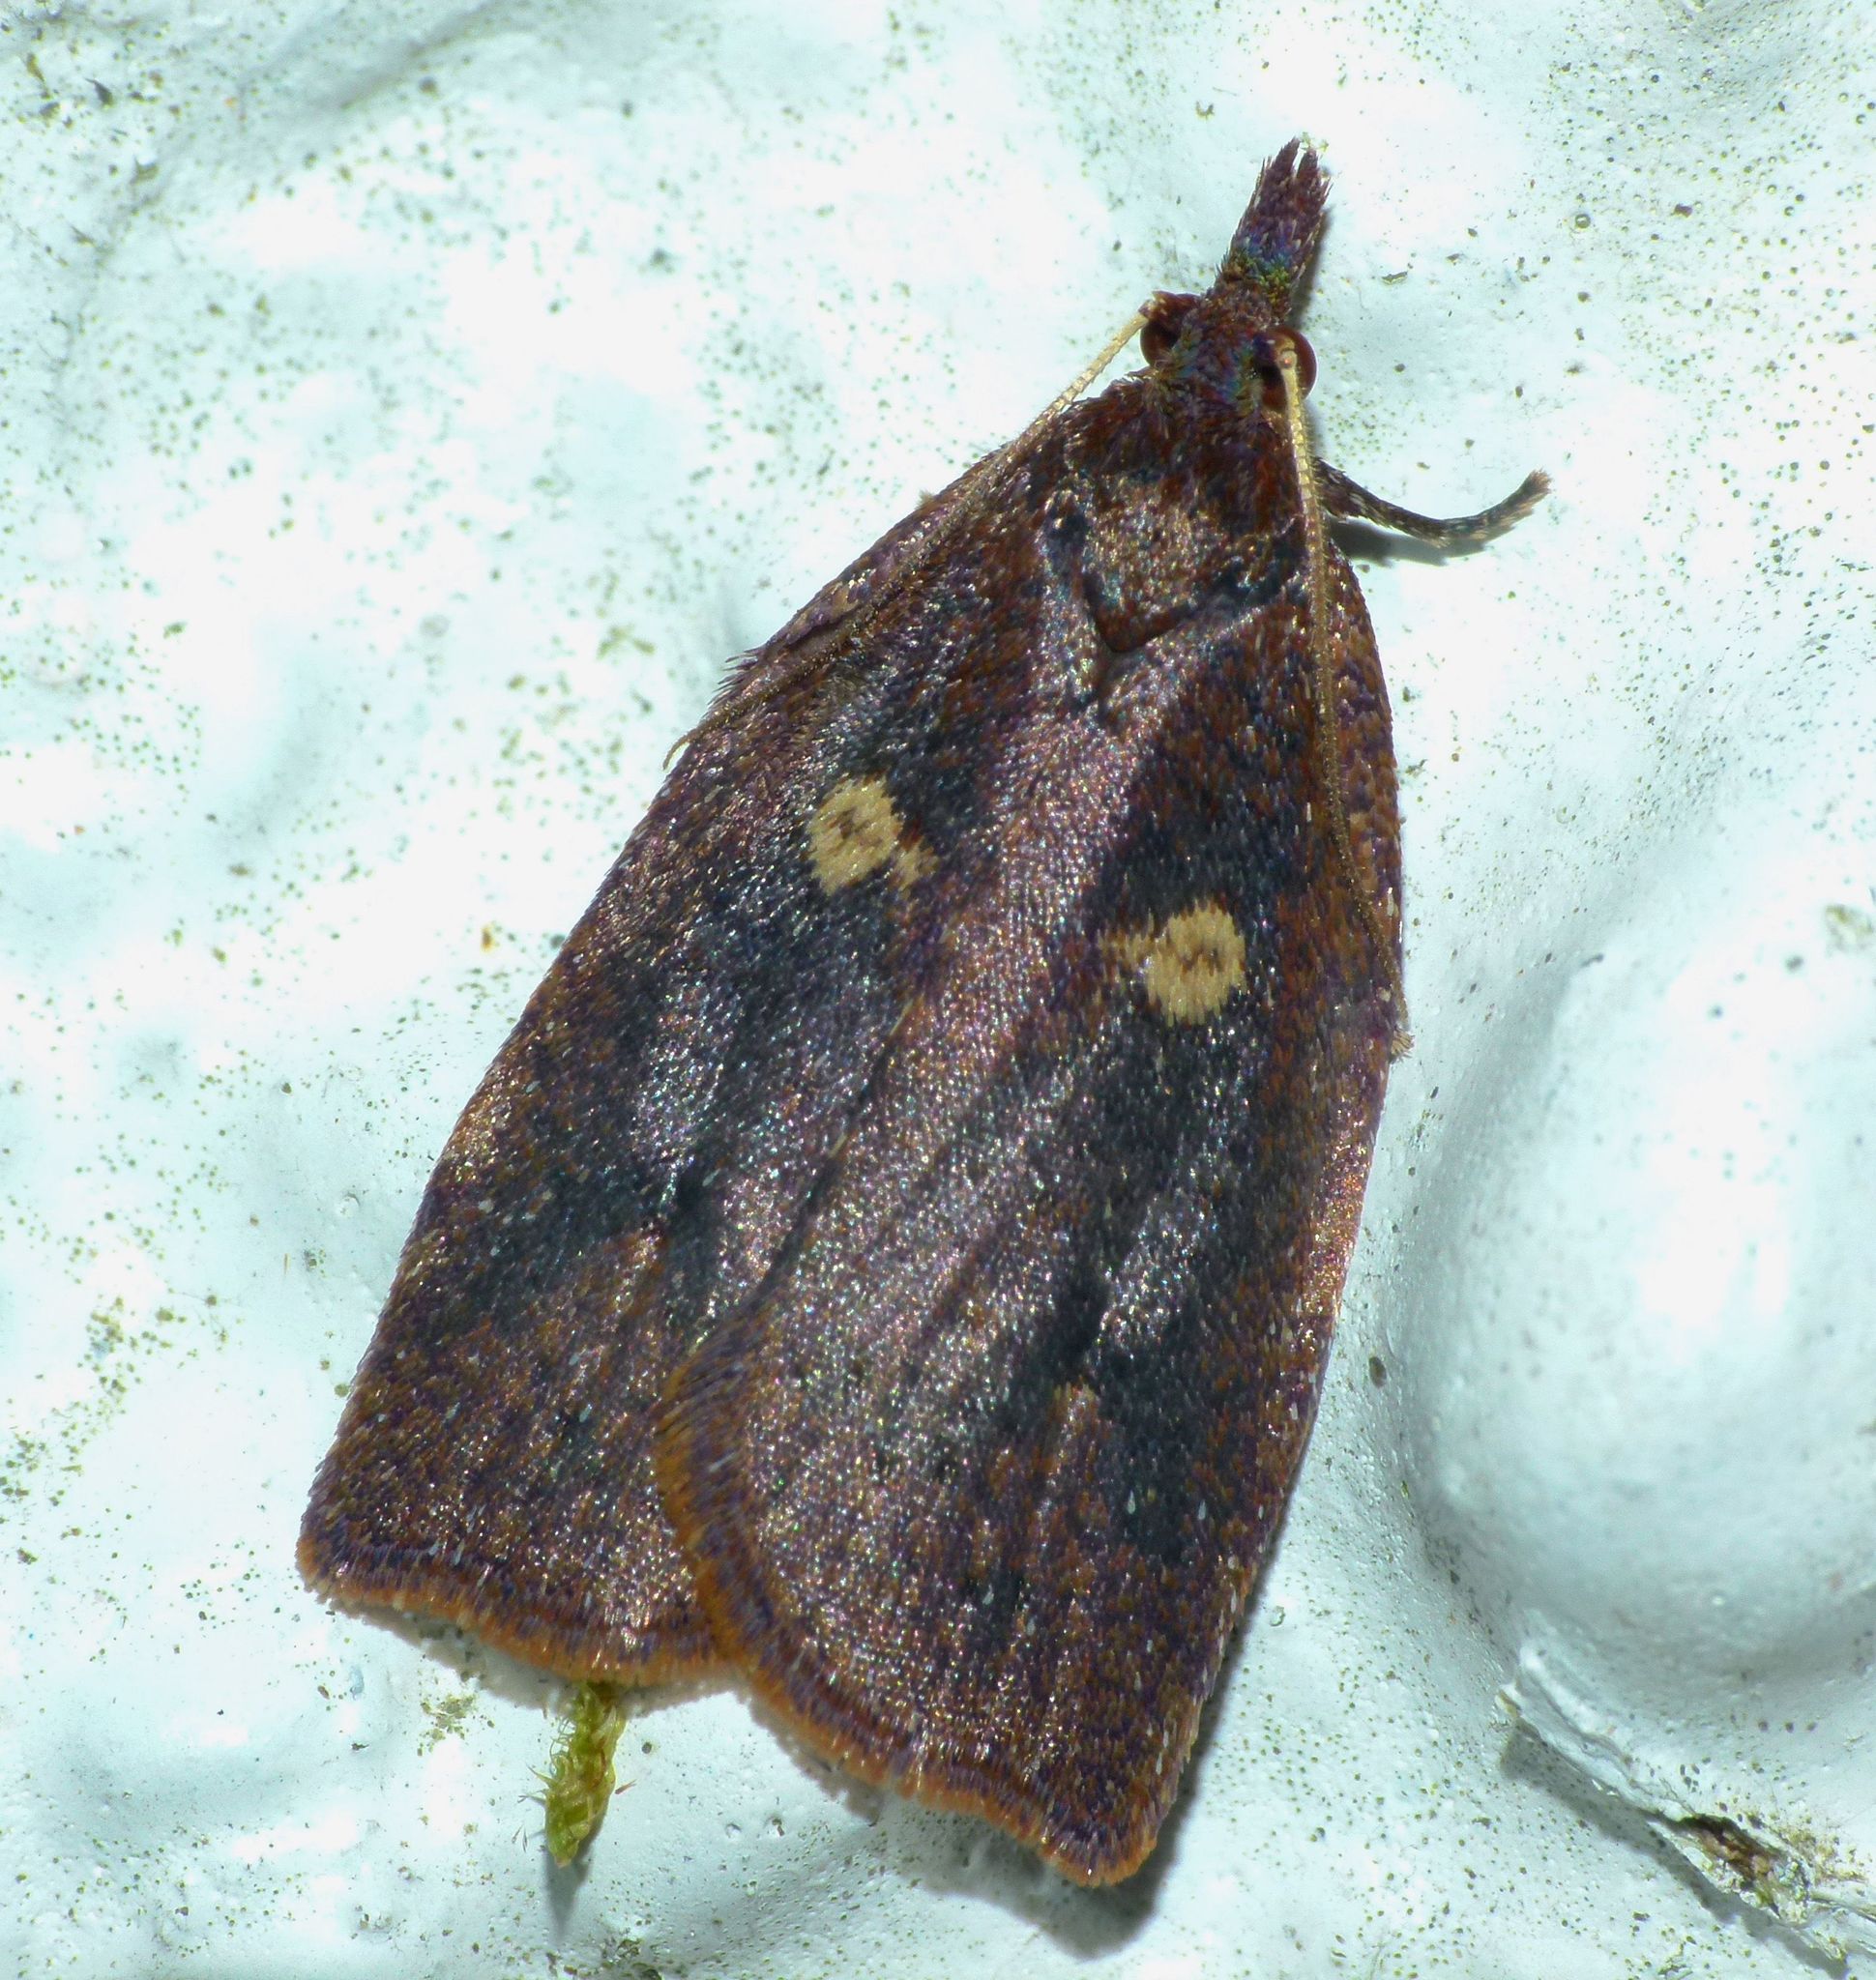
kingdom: Animalia
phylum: Arthropoda
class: Insecta
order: Lepidoptera
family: Tortricidae
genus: Planotortrix
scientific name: Planotortrix excessana
